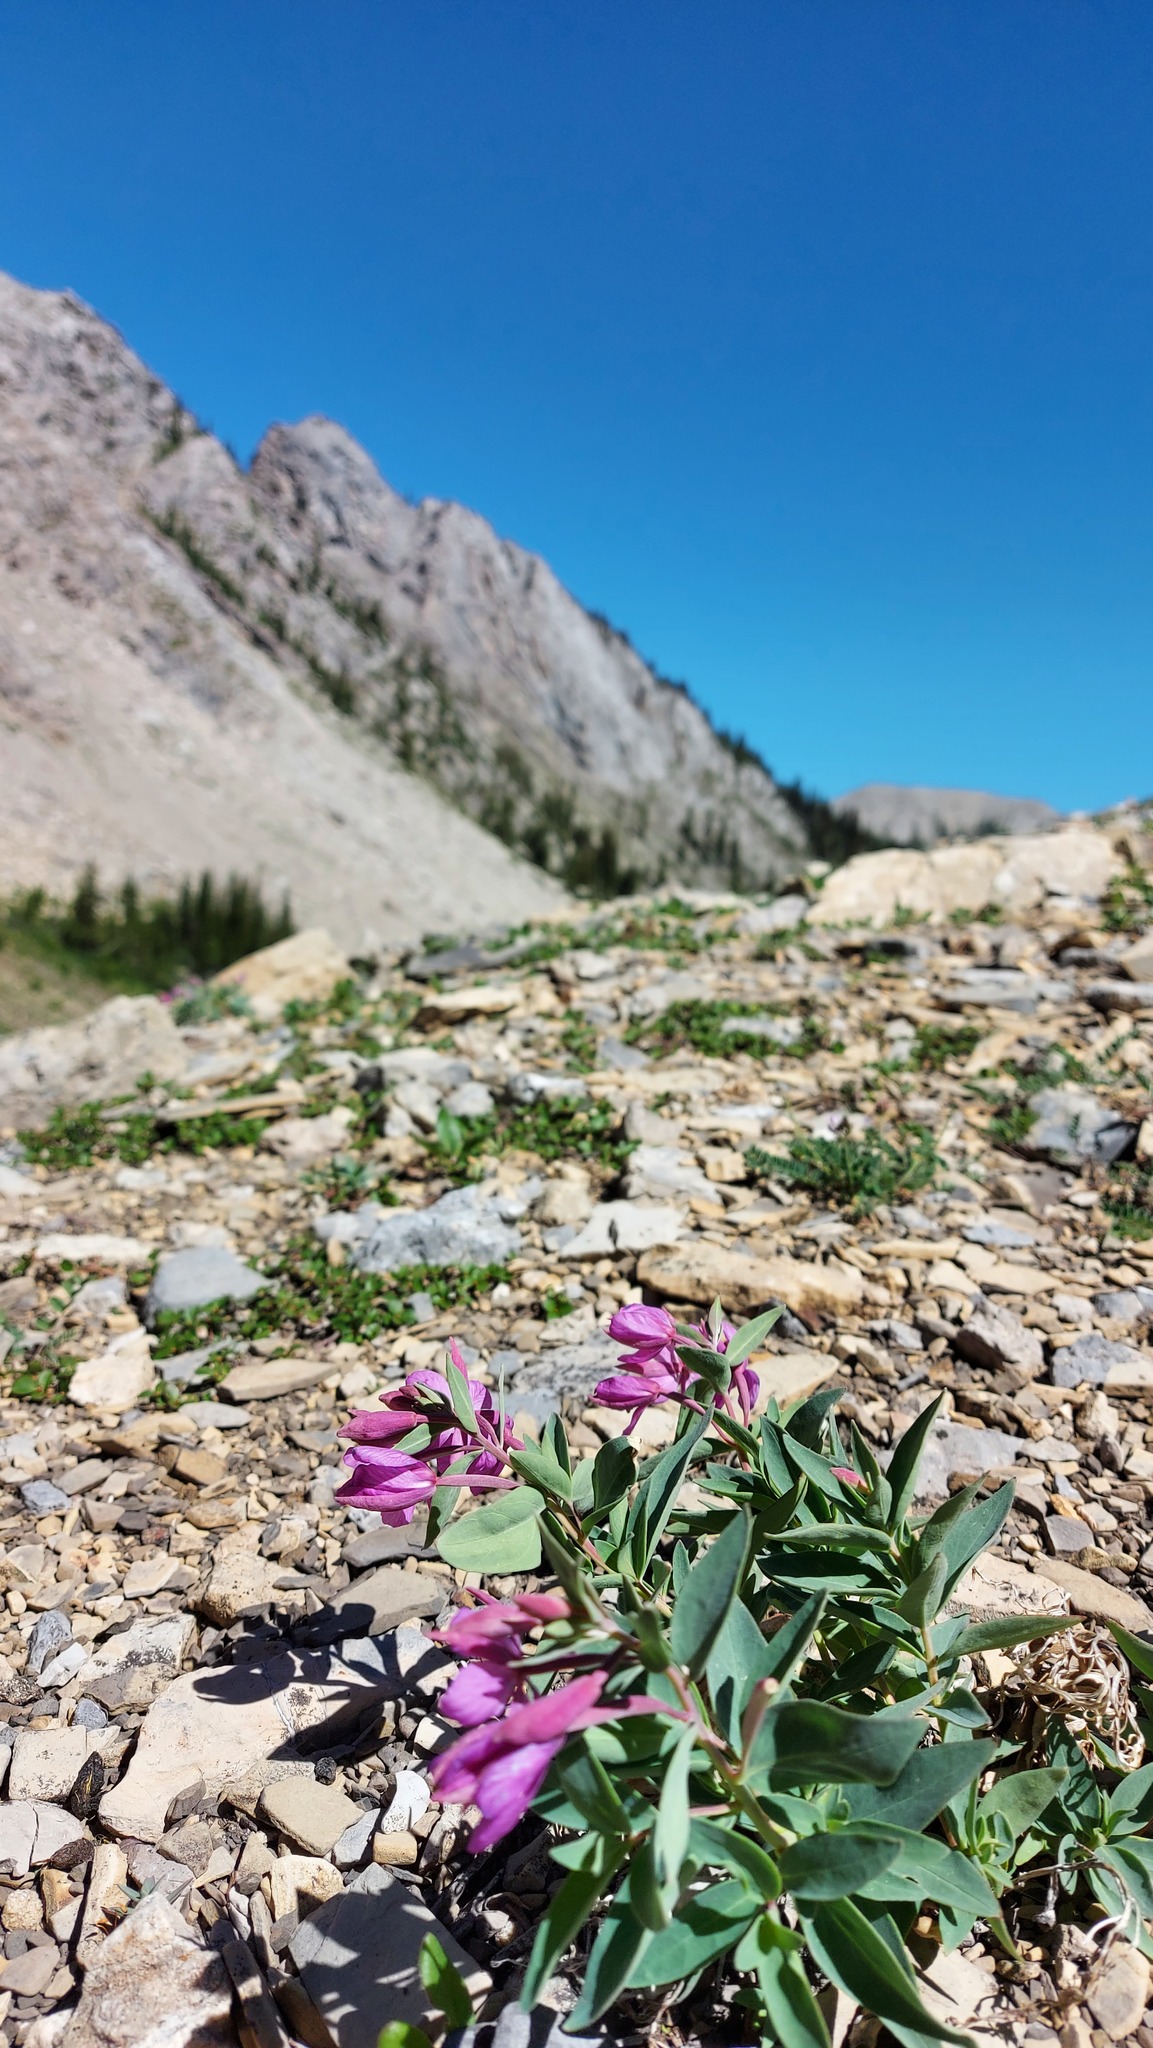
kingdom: Plantae
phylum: Tracheophyta
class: Magnoliopsida
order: Myrtales
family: Onagraceae
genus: Chamaenerion
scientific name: Chamaenerion latifolium
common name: Dwarf fireweed
